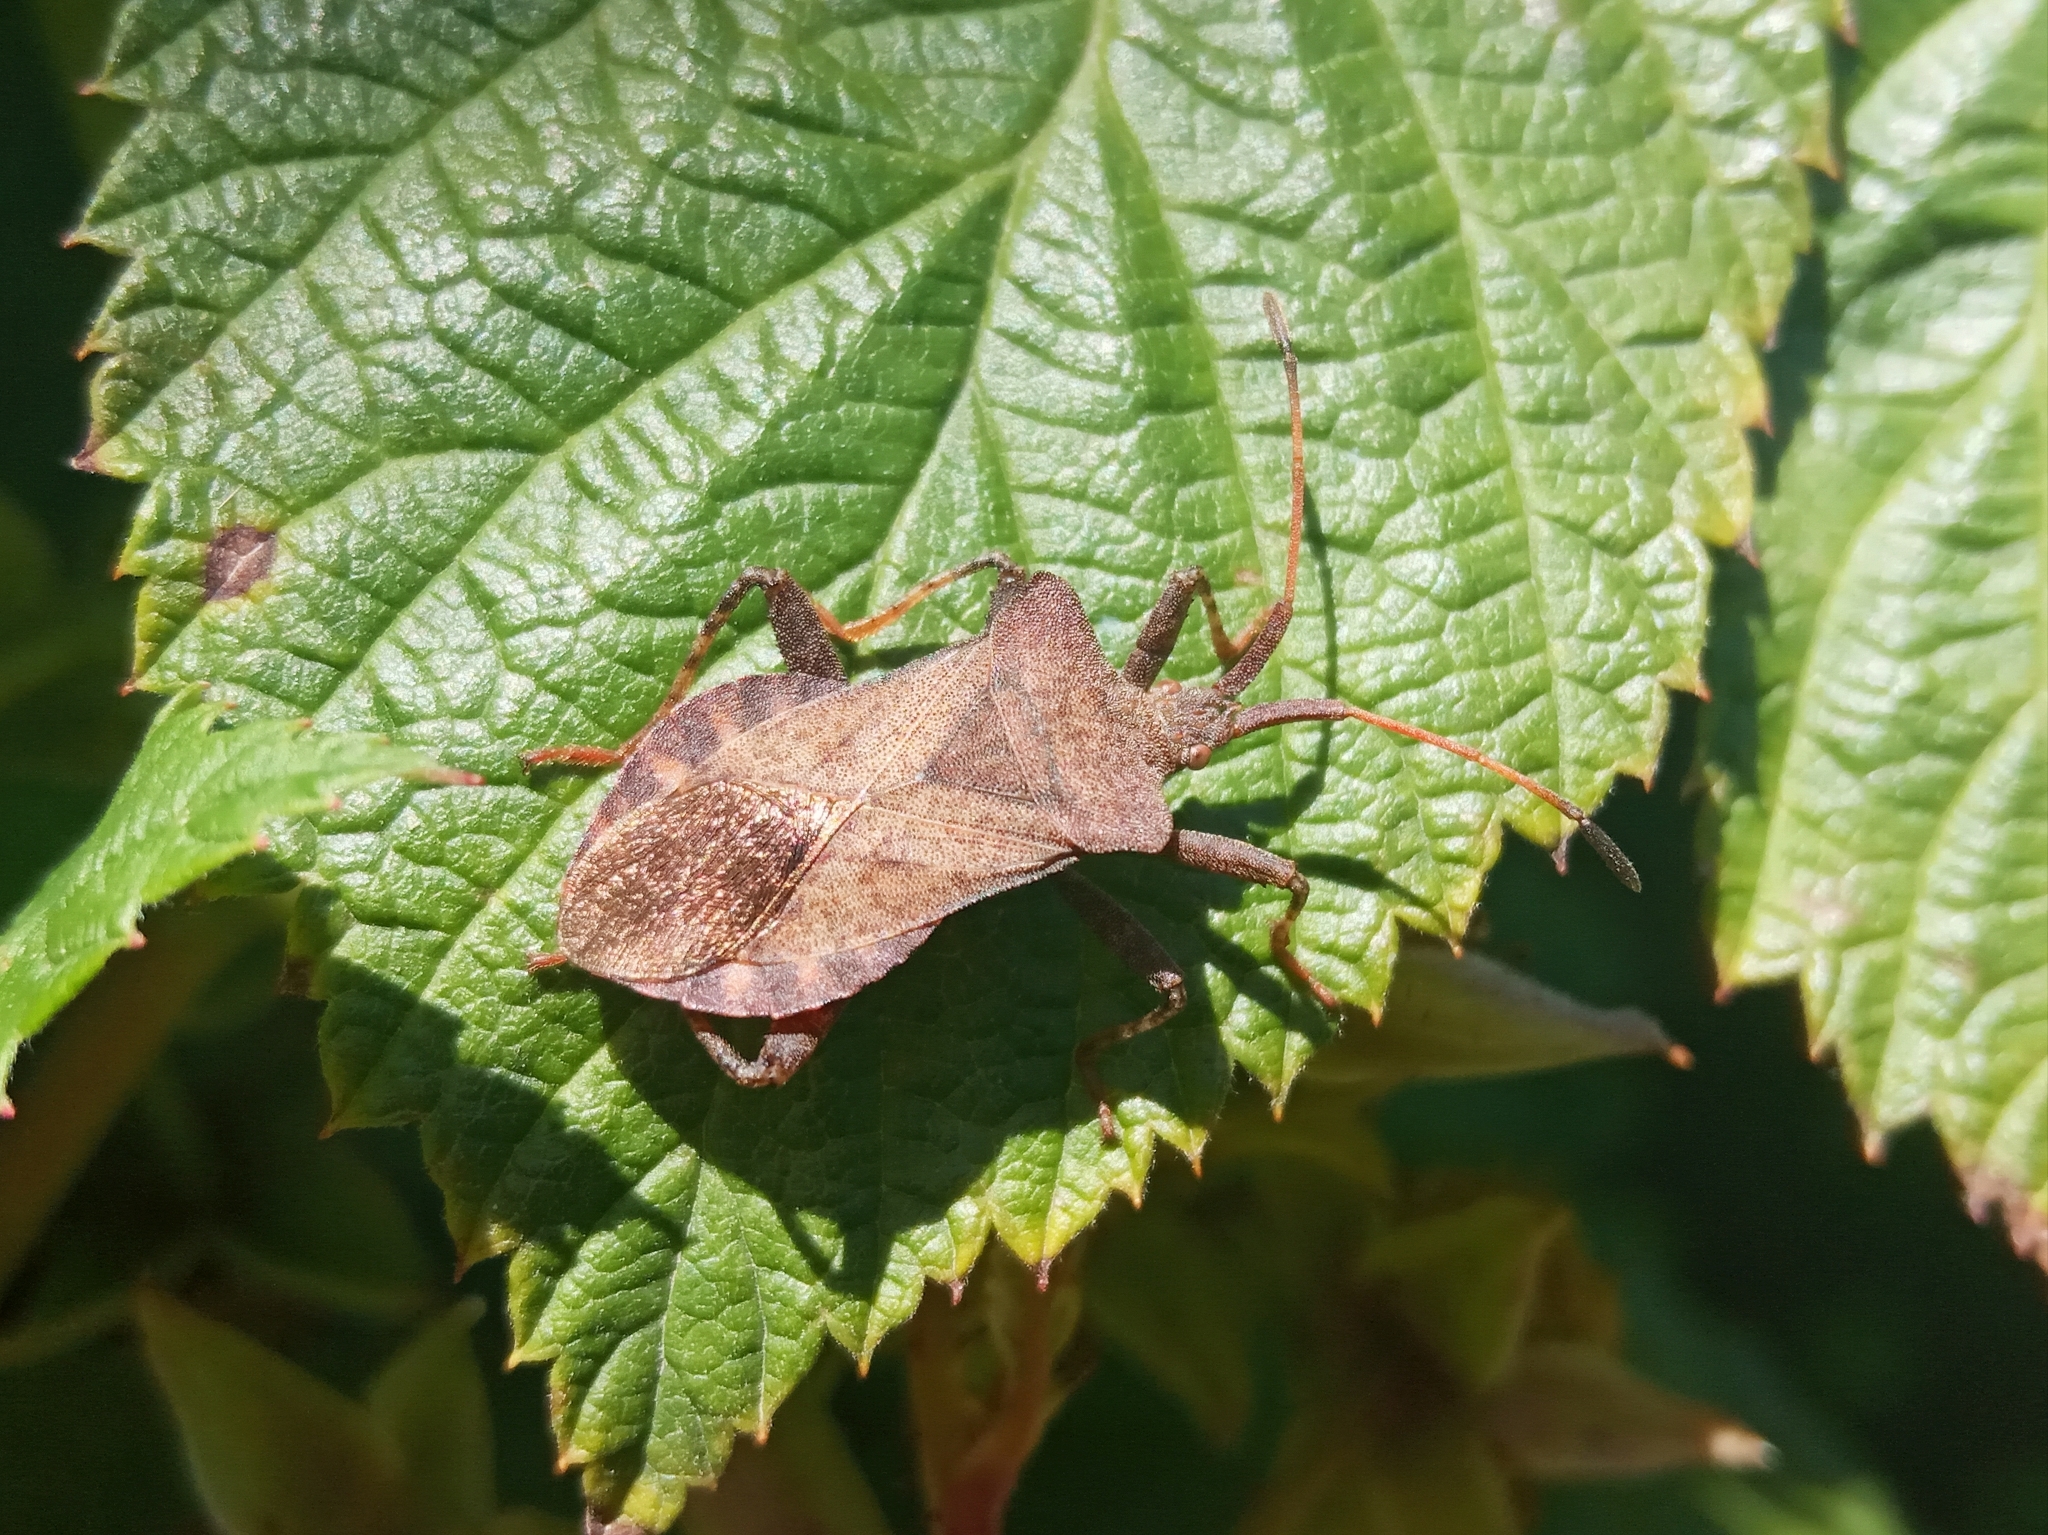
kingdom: Animalia
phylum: Arthropoda
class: Insecta
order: Hemiptera
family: Coreidae
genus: Coreus
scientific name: Coreus marginatus
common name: Dock bug
